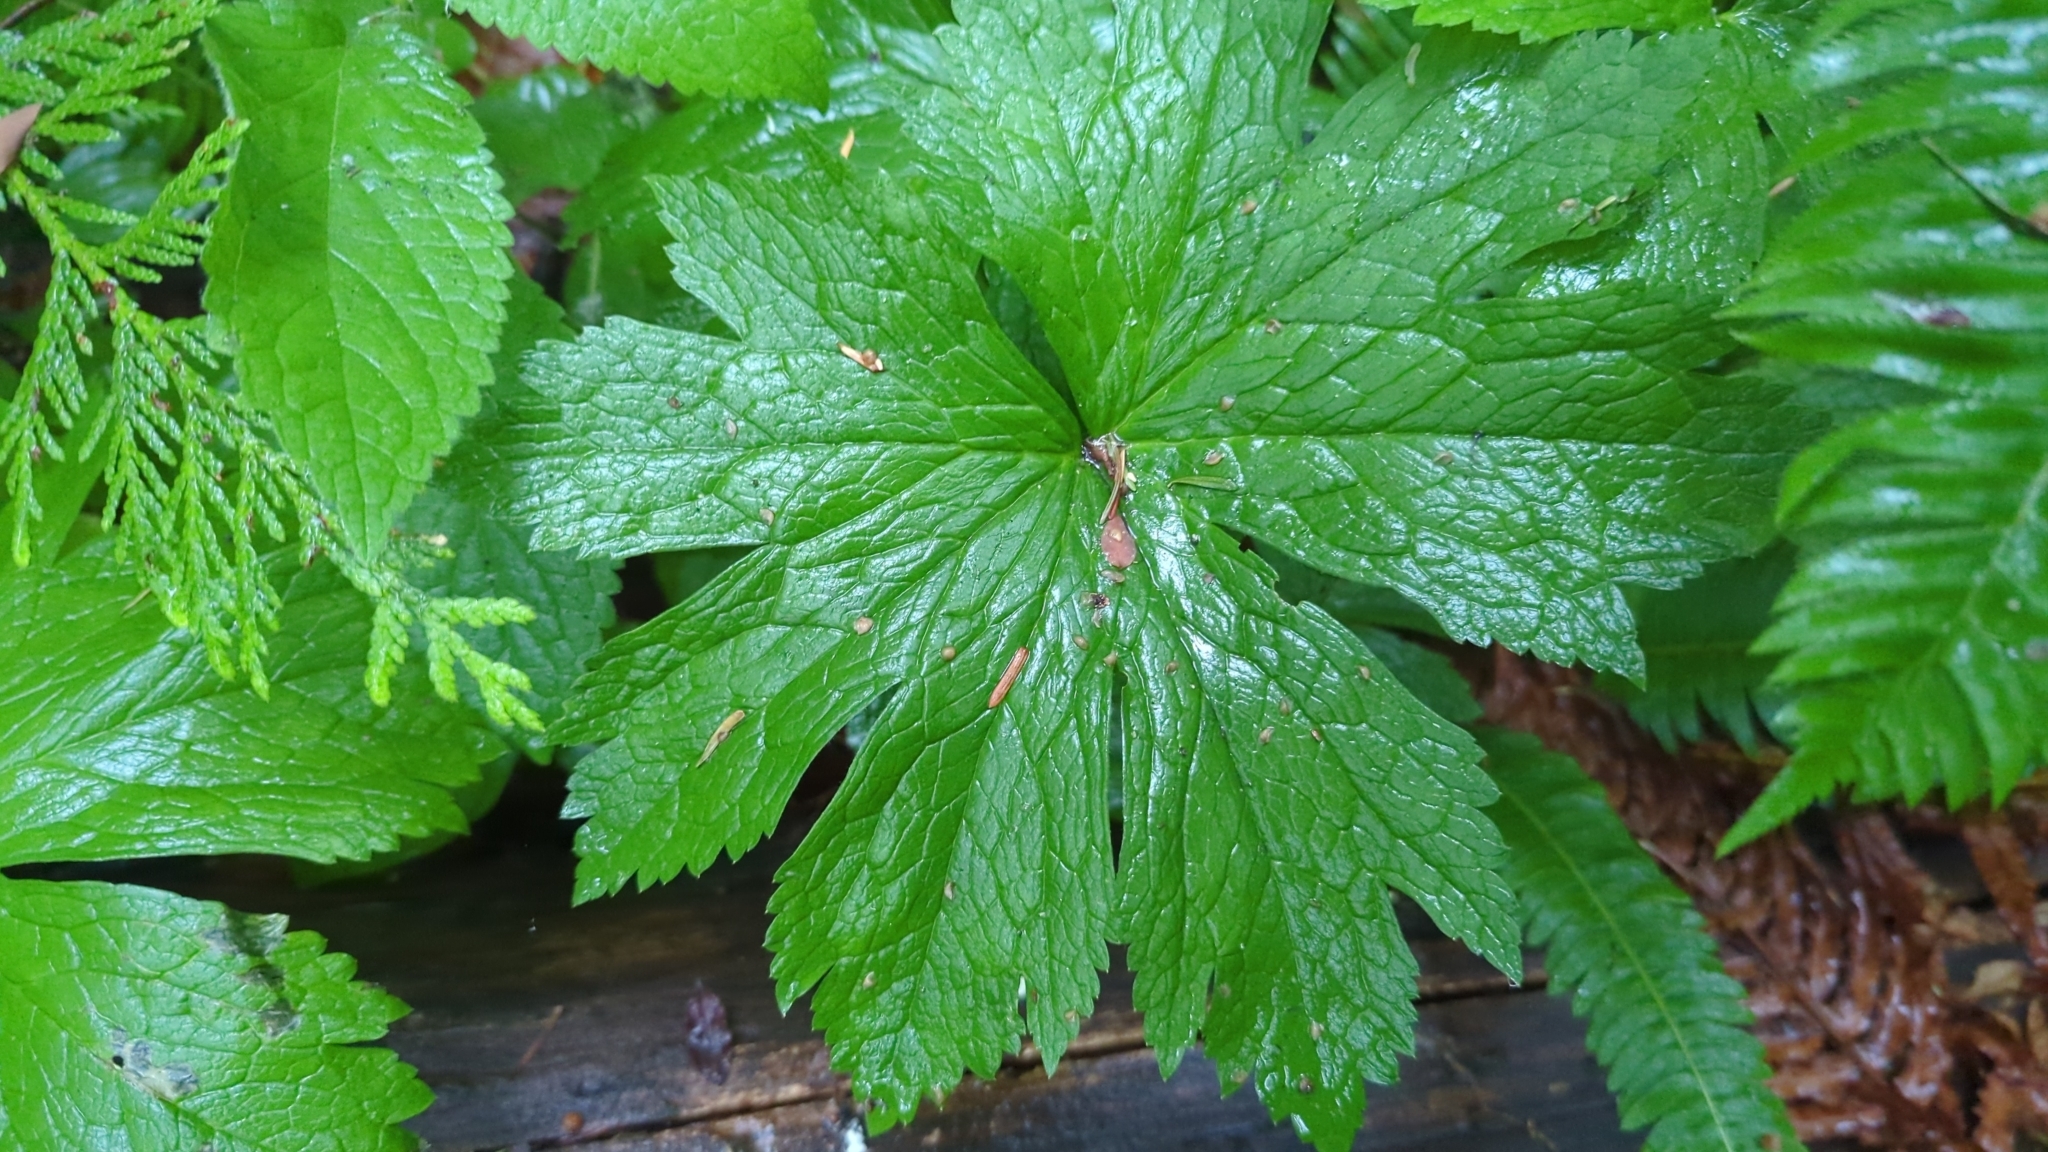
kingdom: Plantae
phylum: Tracheophyta
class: Magnoliopsida
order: Ranunculales
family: Ranunculaceae
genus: Trautvetteria
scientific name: Trautvetteria carolinensis
